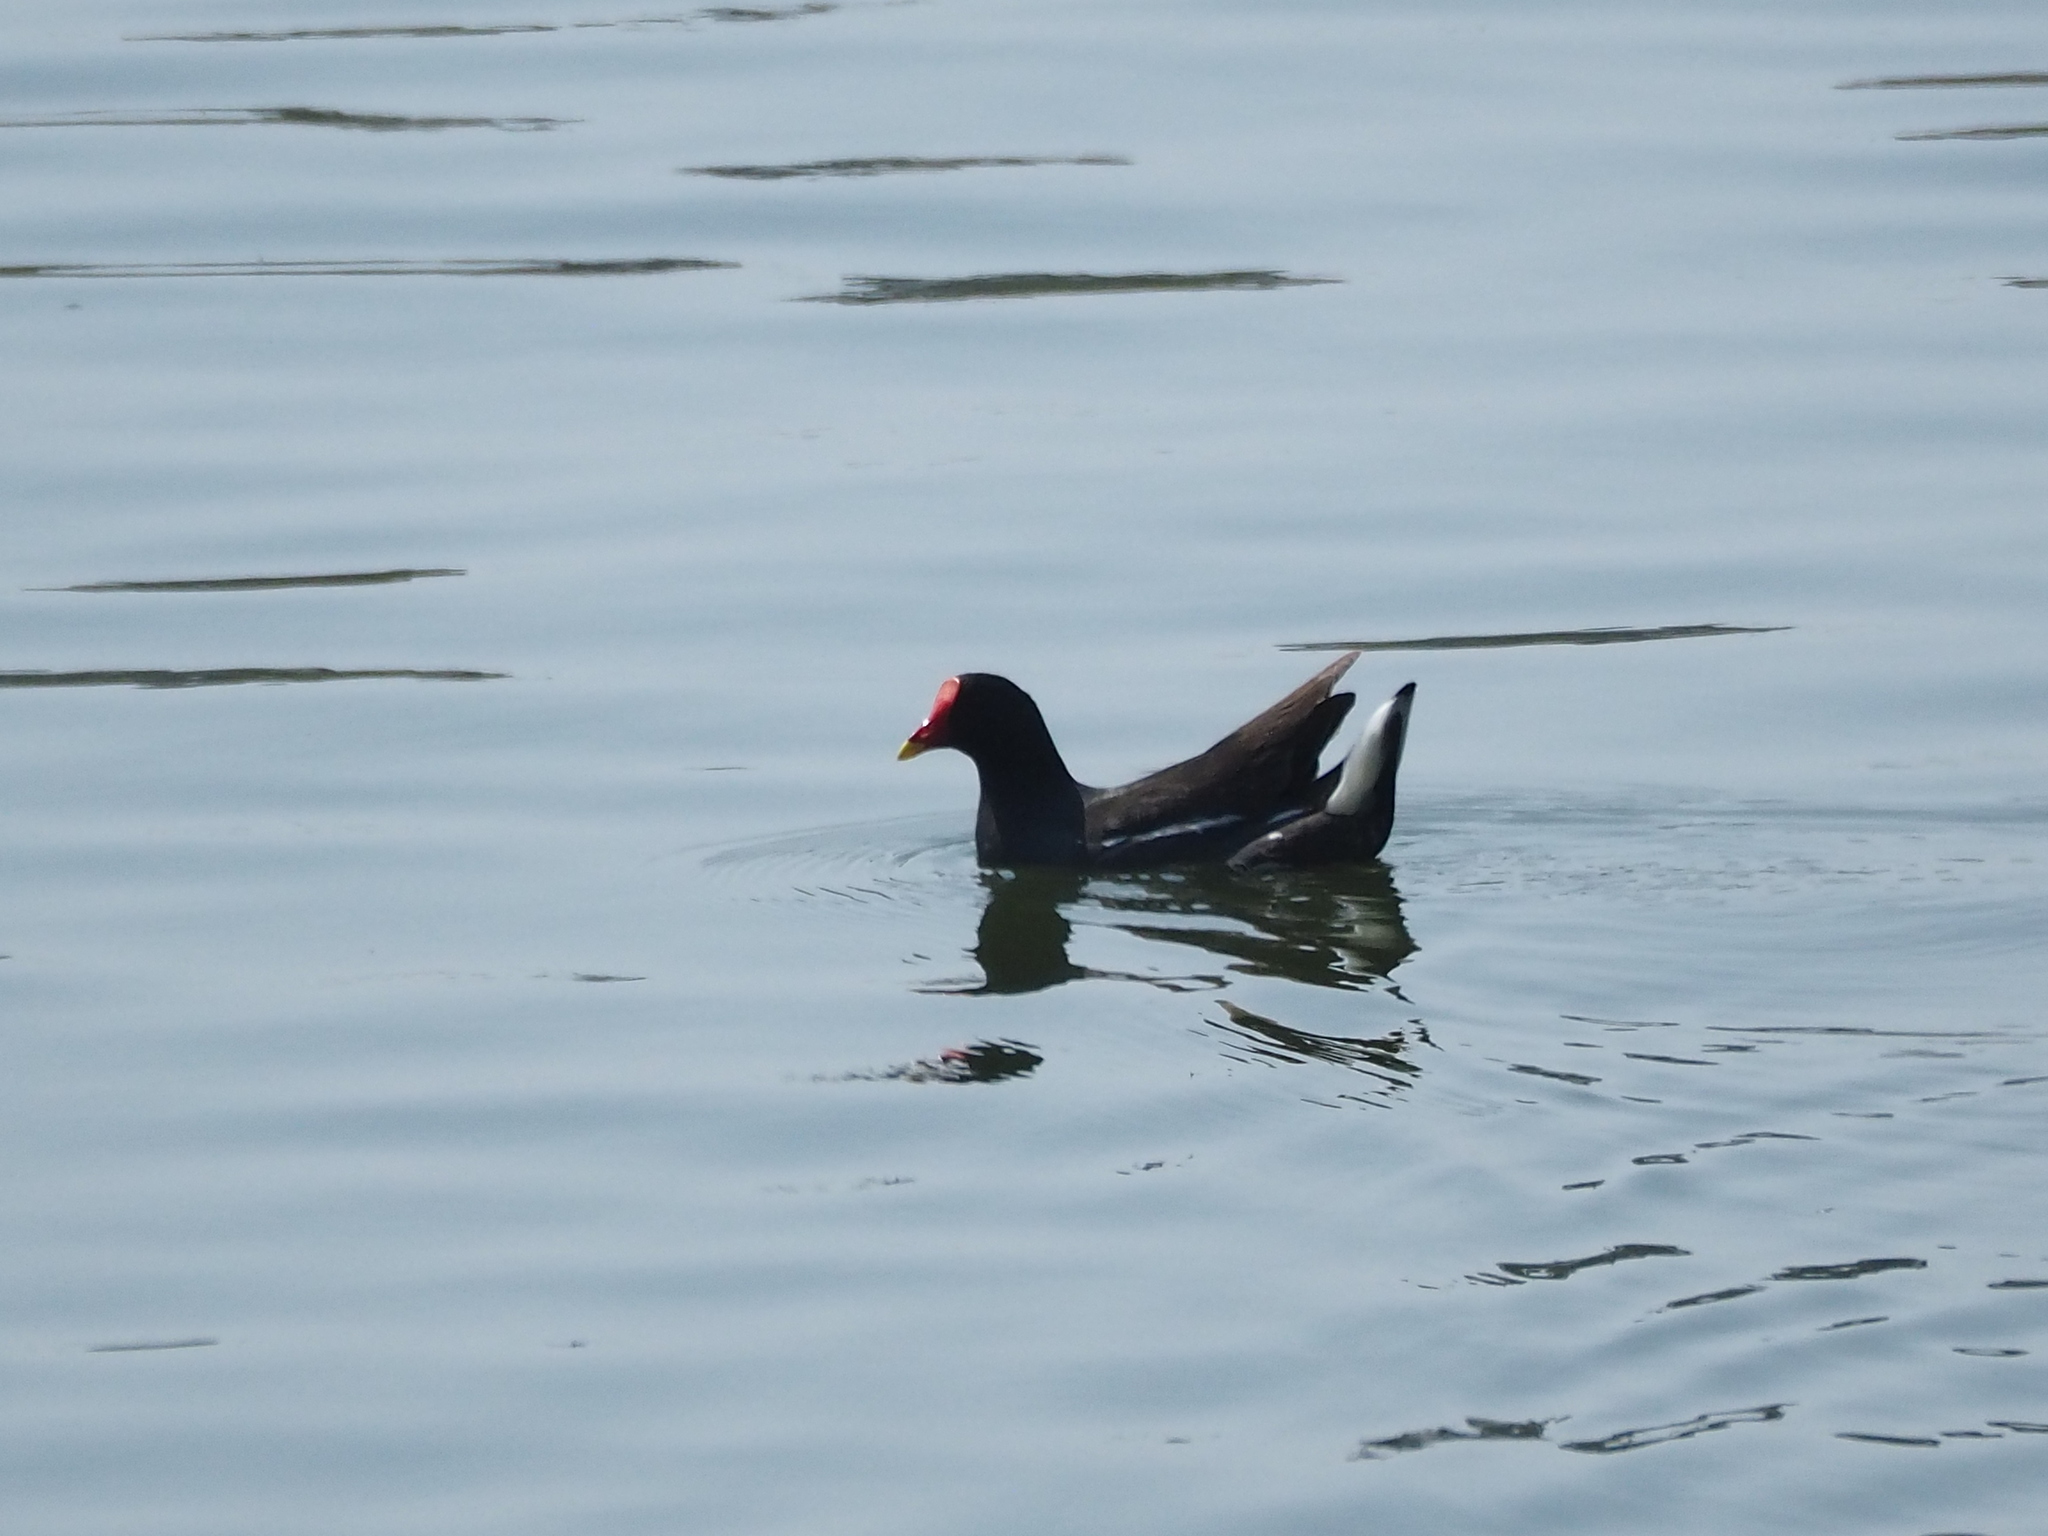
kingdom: Animalia
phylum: Chordata
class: Aves
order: Gruiformes
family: Rallidae
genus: Gallinula
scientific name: Gallinula chloropus
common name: Common moorhen
